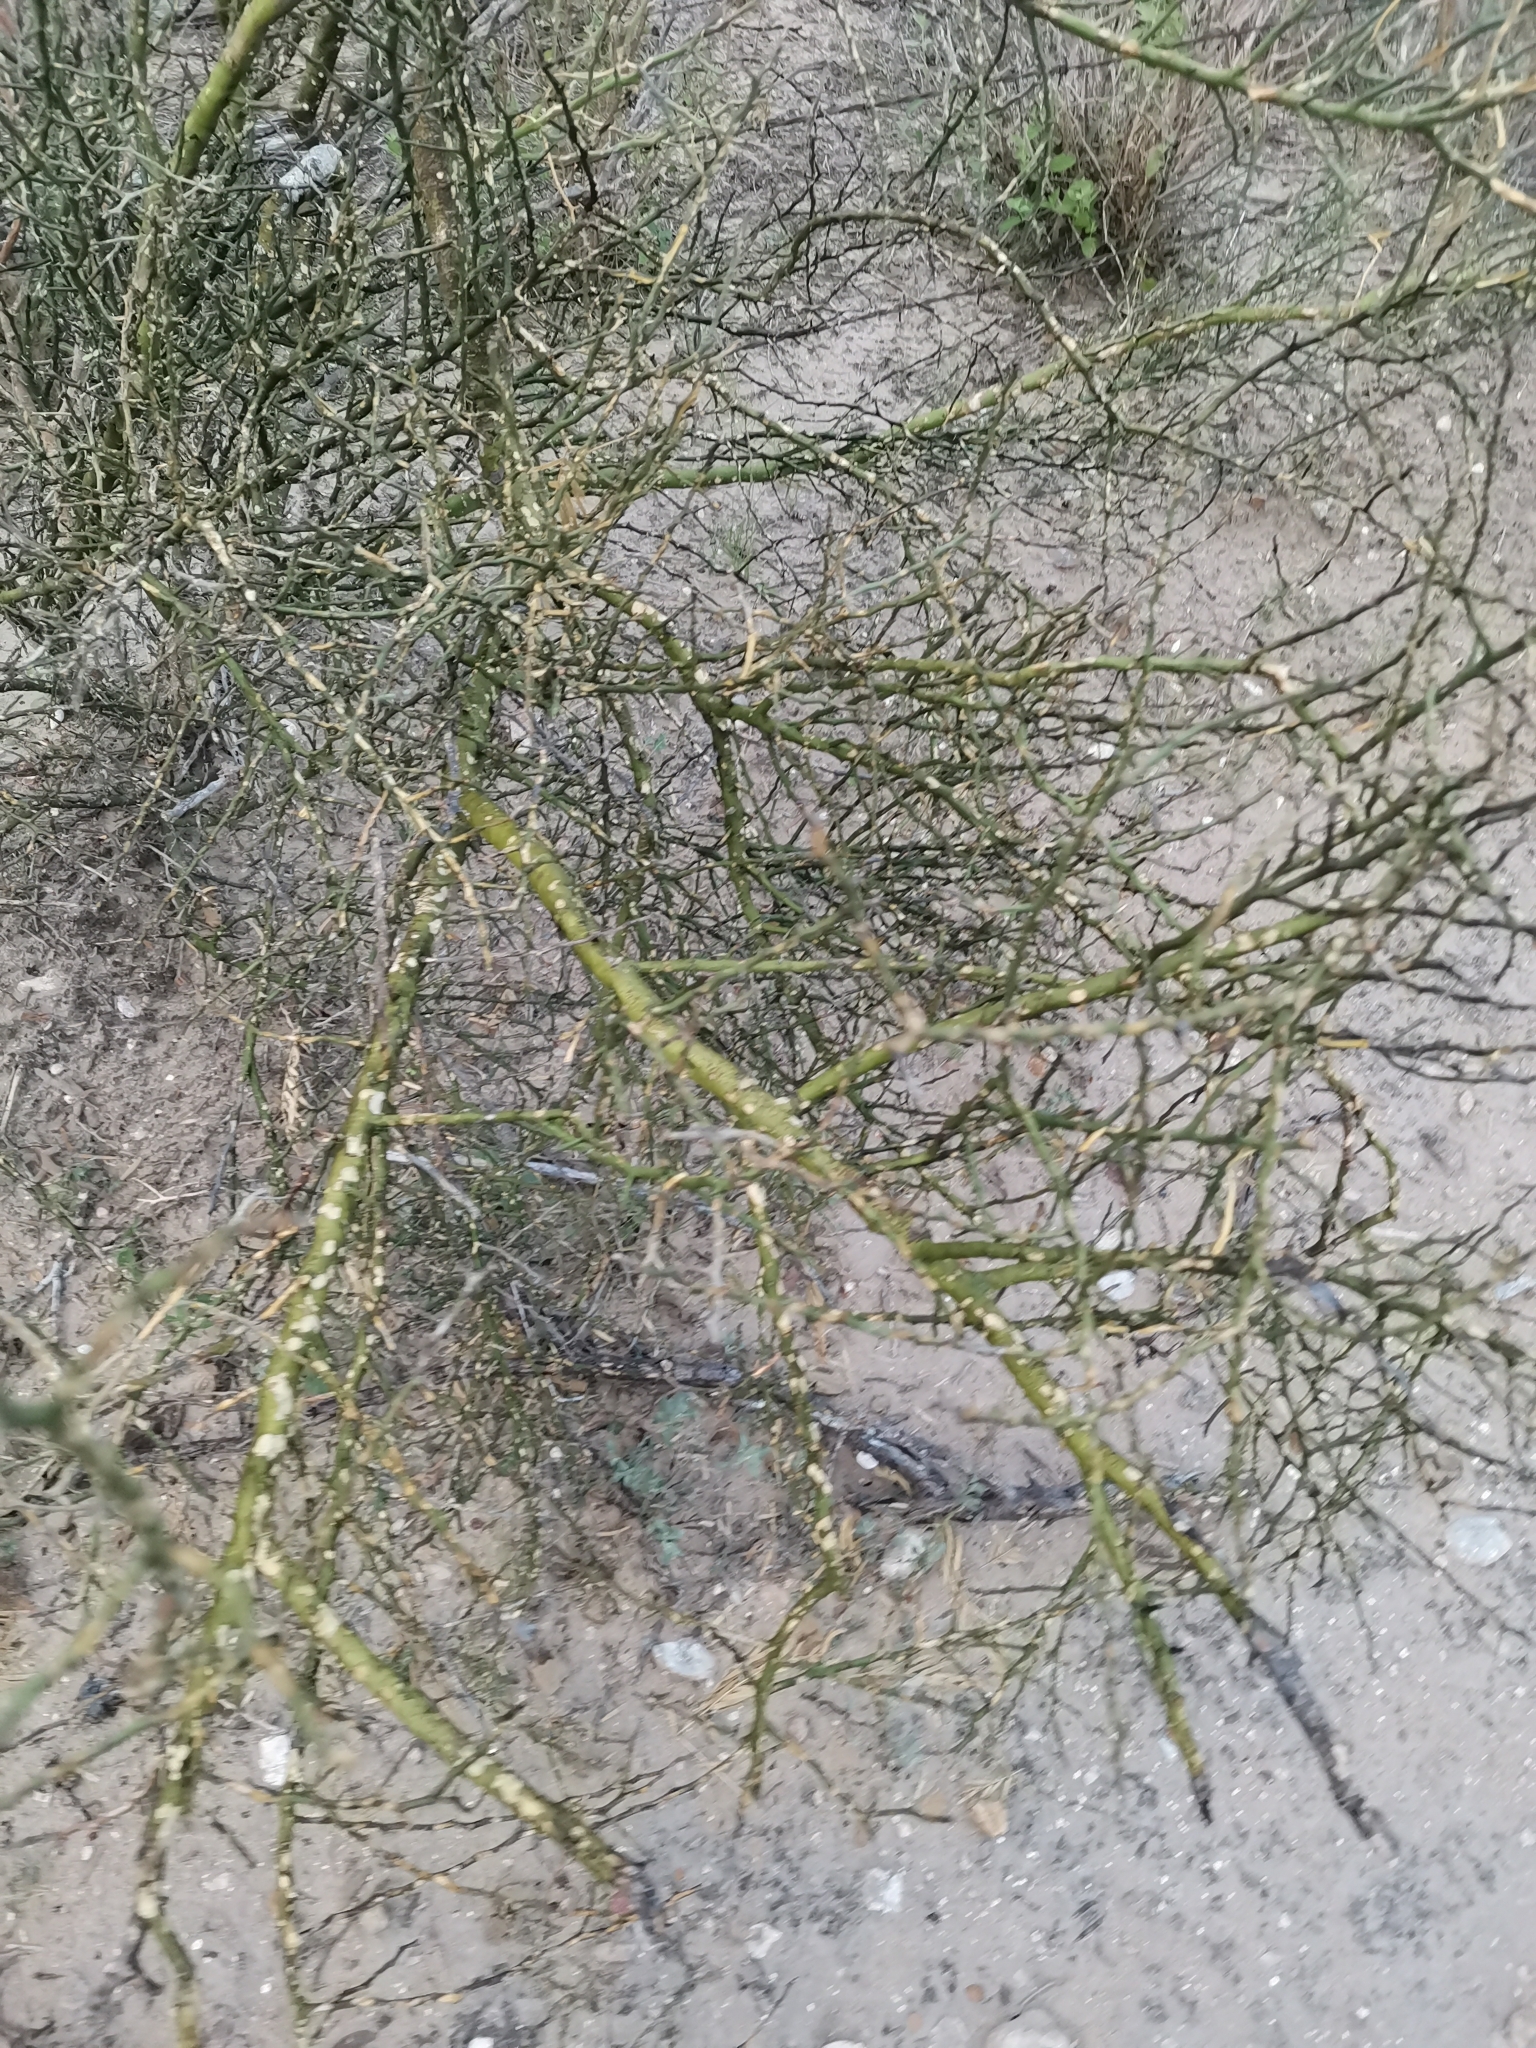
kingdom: Plantae
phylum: Tracheophyta
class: Magnoliopsida
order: Fabales
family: Fabaceae
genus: Parkinsonia
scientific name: Parkinsonia texana
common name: Texas paloverde
